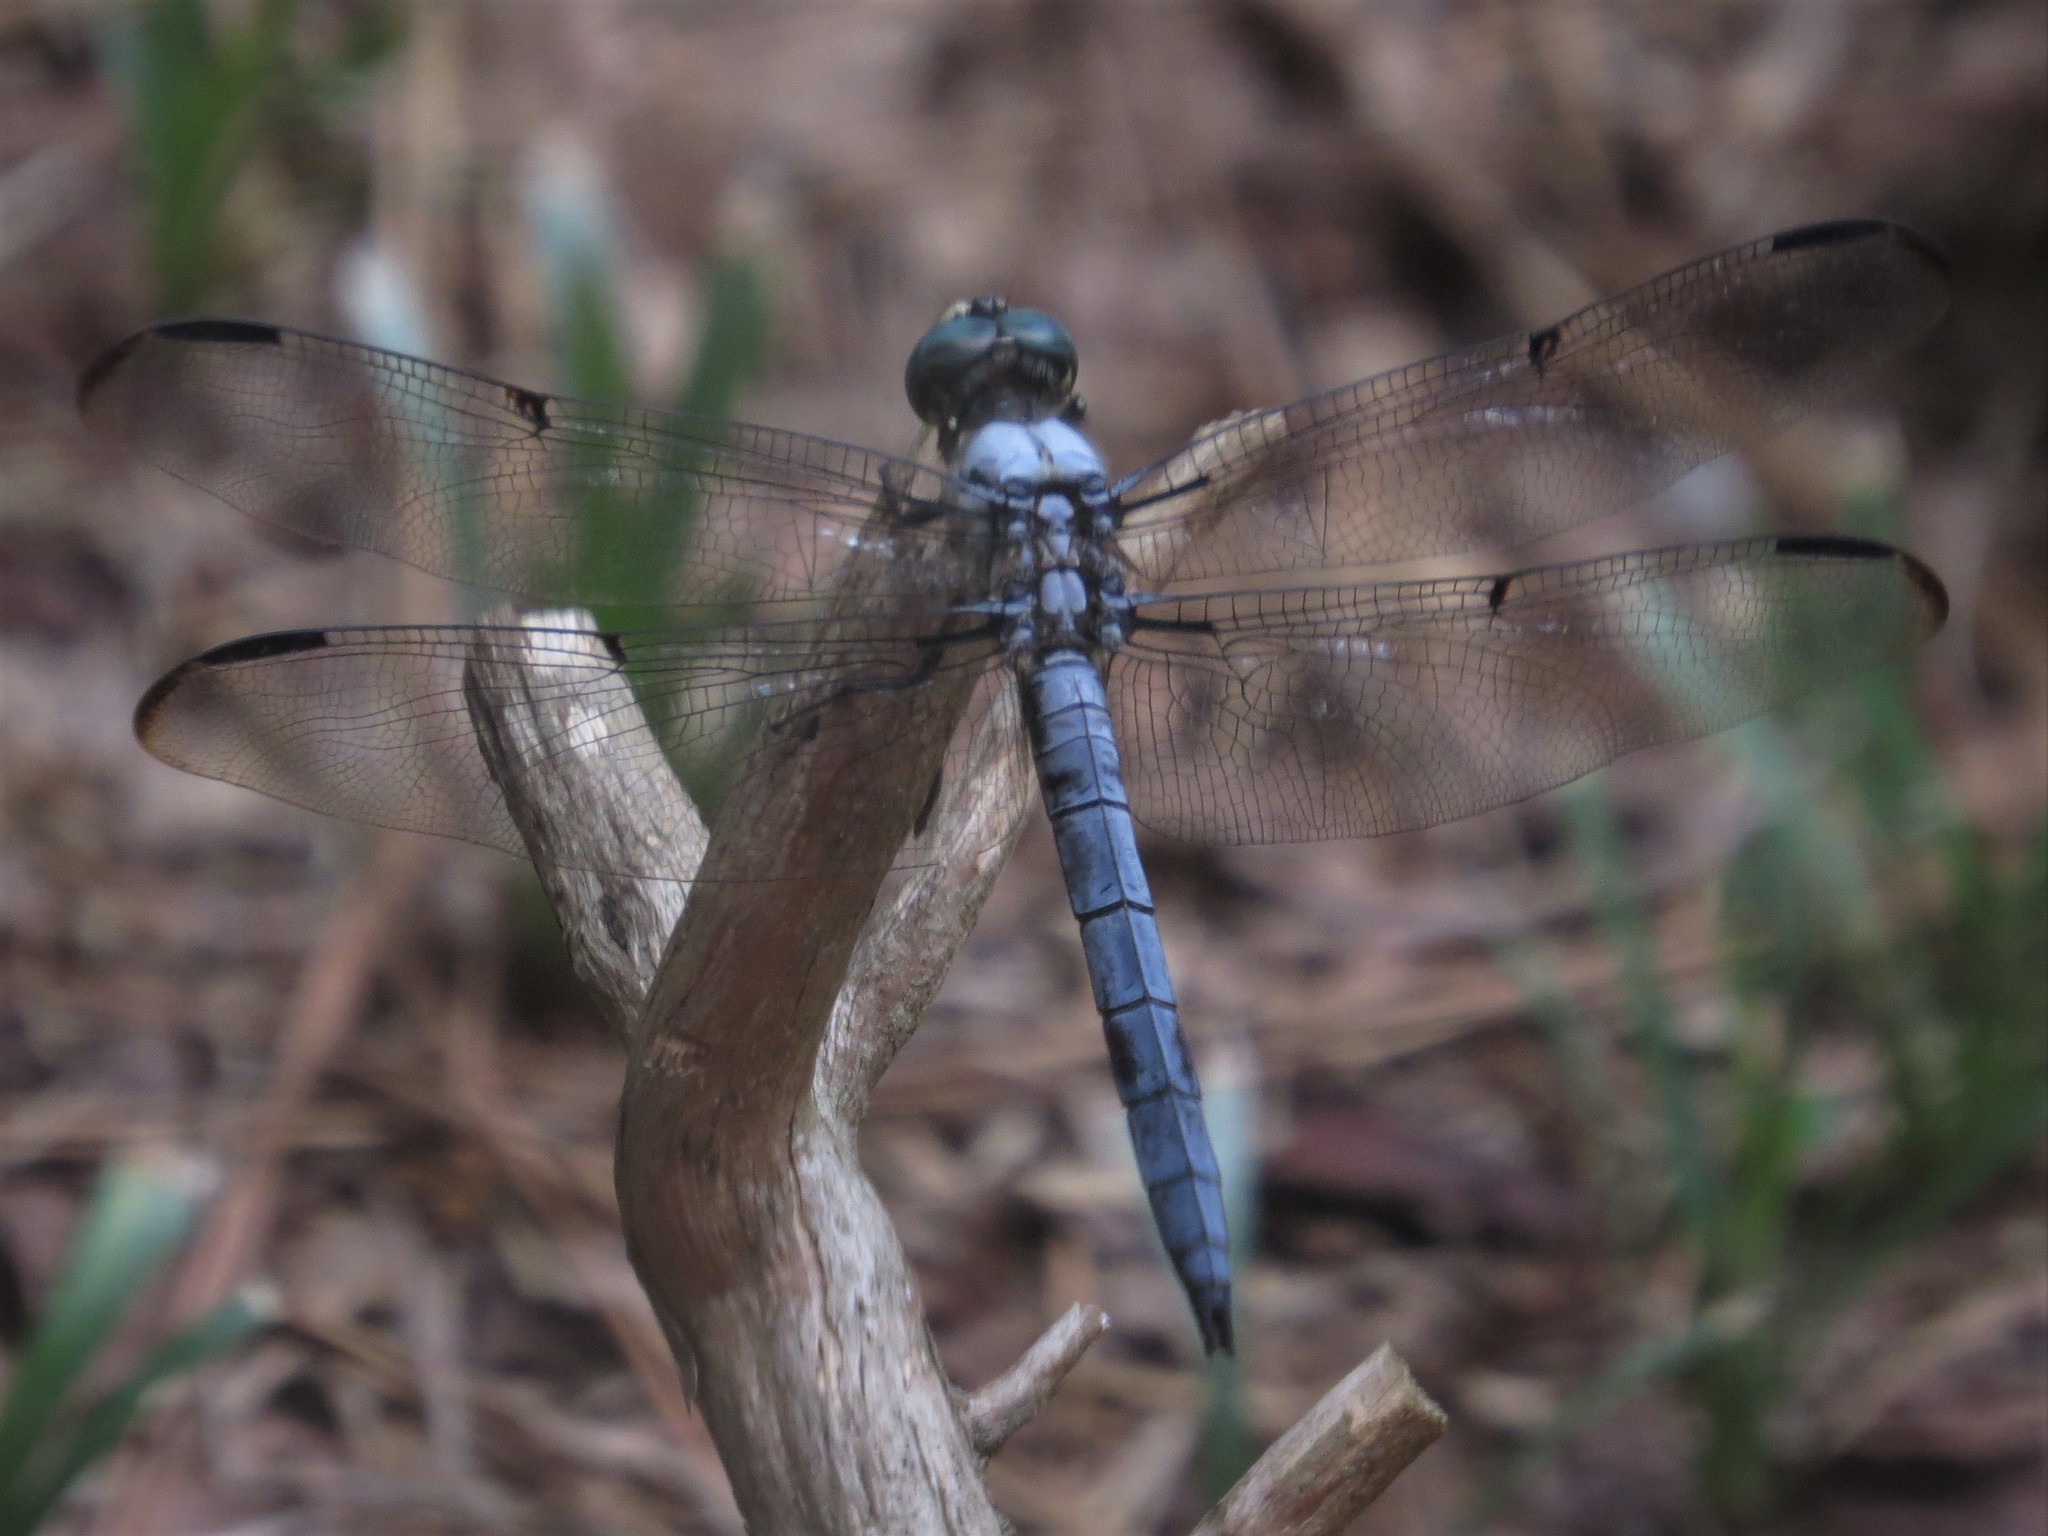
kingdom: Animalia
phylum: Arthropoda
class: Insecta
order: Odonata
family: Libellulidae
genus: Libellula
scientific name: Libellula vibrans
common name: Great blue skimmer
